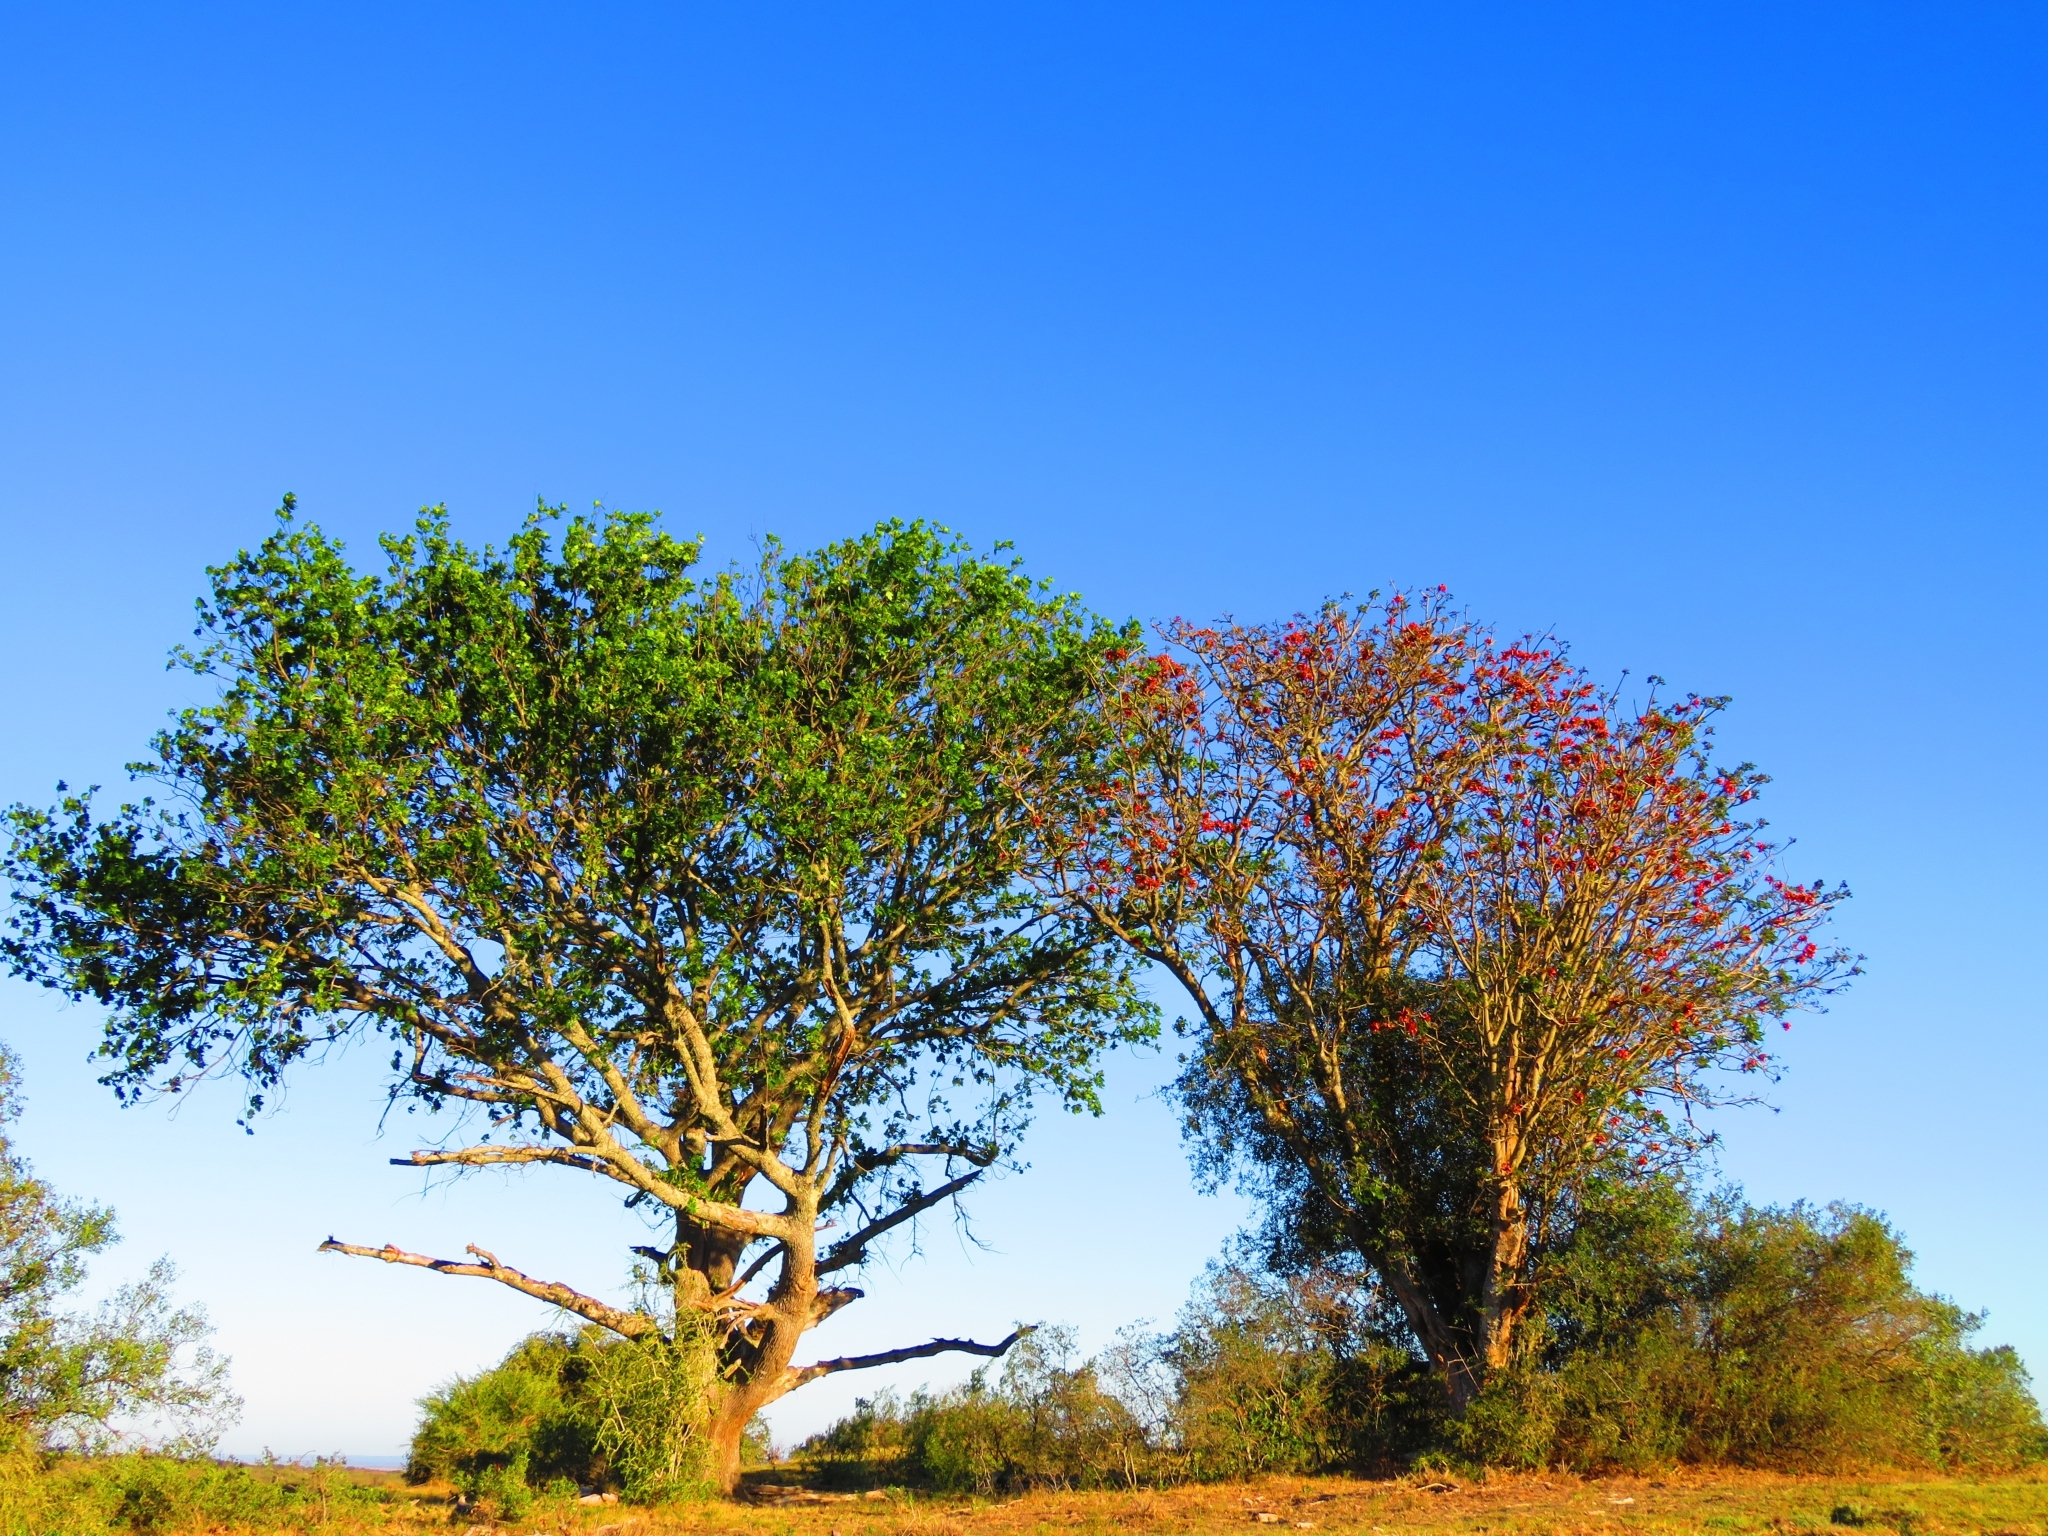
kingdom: Plantae
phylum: Tracheophyta
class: Magnoliopsida
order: Fabales
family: Fabaceae
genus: Erythrina
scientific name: Erythrina caffra
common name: Coast coral tree
